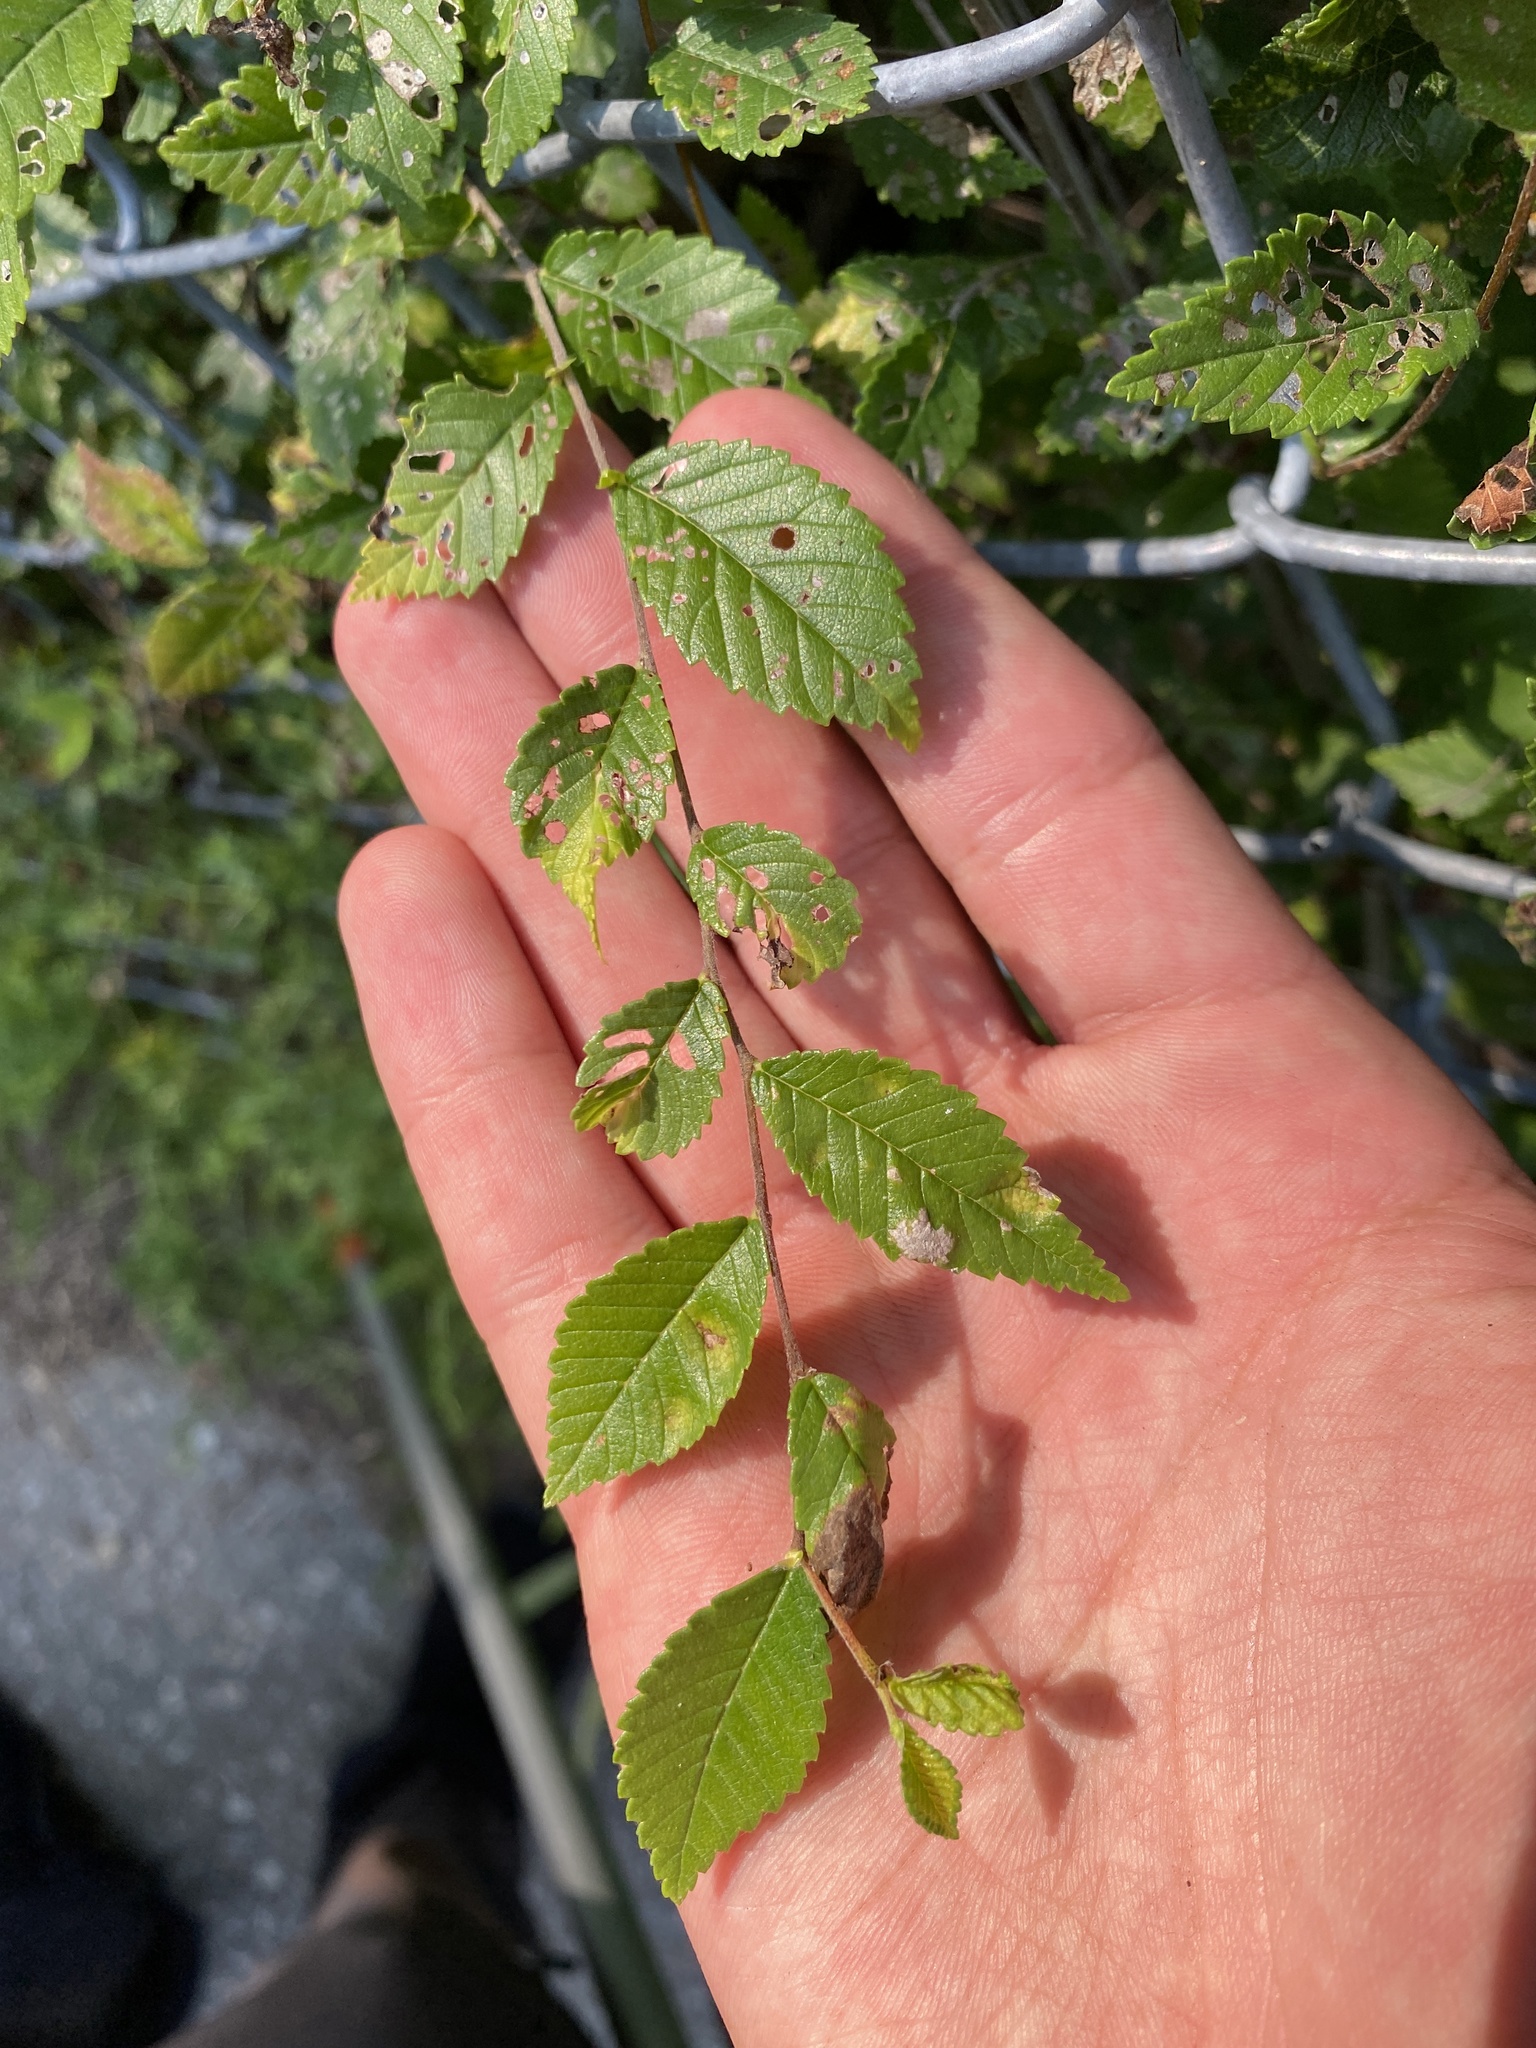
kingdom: Plantae
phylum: Tracheophyta
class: Magnoliopsida
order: Rosales
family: Ulmaceae
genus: Ulmus
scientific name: Ulmus pumila
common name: Siberian elm
